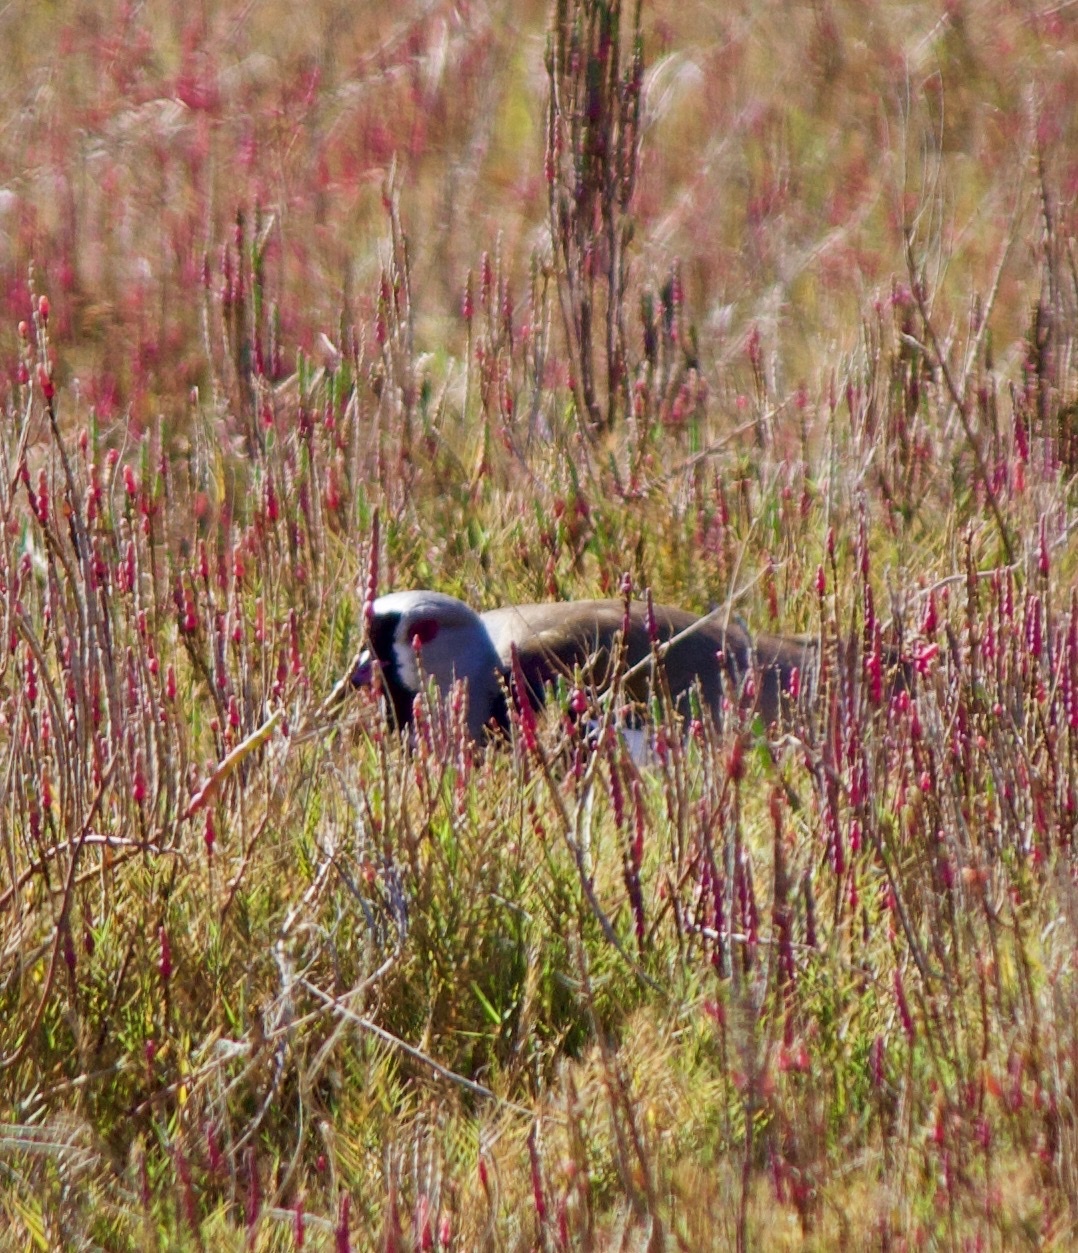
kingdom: Animalia
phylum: Chordata
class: Aves
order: Charadriiformes
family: Charadriidae
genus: Vanellus
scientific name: Vanellus chilensis
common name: Southern lapwing
